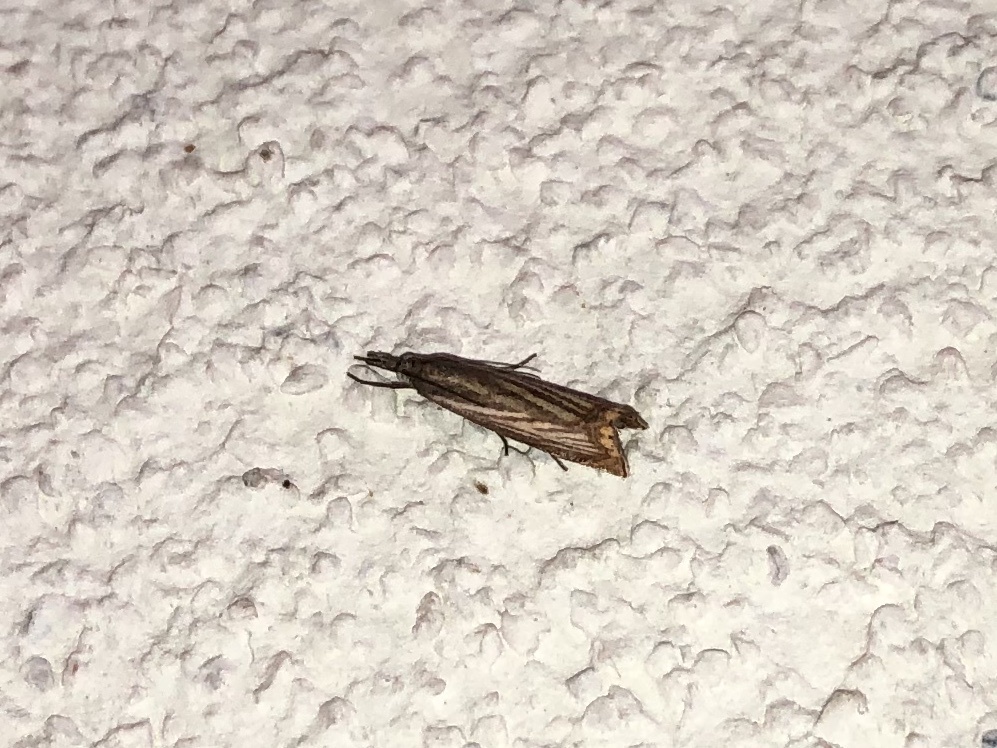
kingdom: Animalia
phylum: Arthropoda
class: Insecta
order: Lepidoptera
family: Crambidae
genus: Chrysoteuchia
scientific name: Chrysoteuchia culmella
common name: Garden grass-veneer
